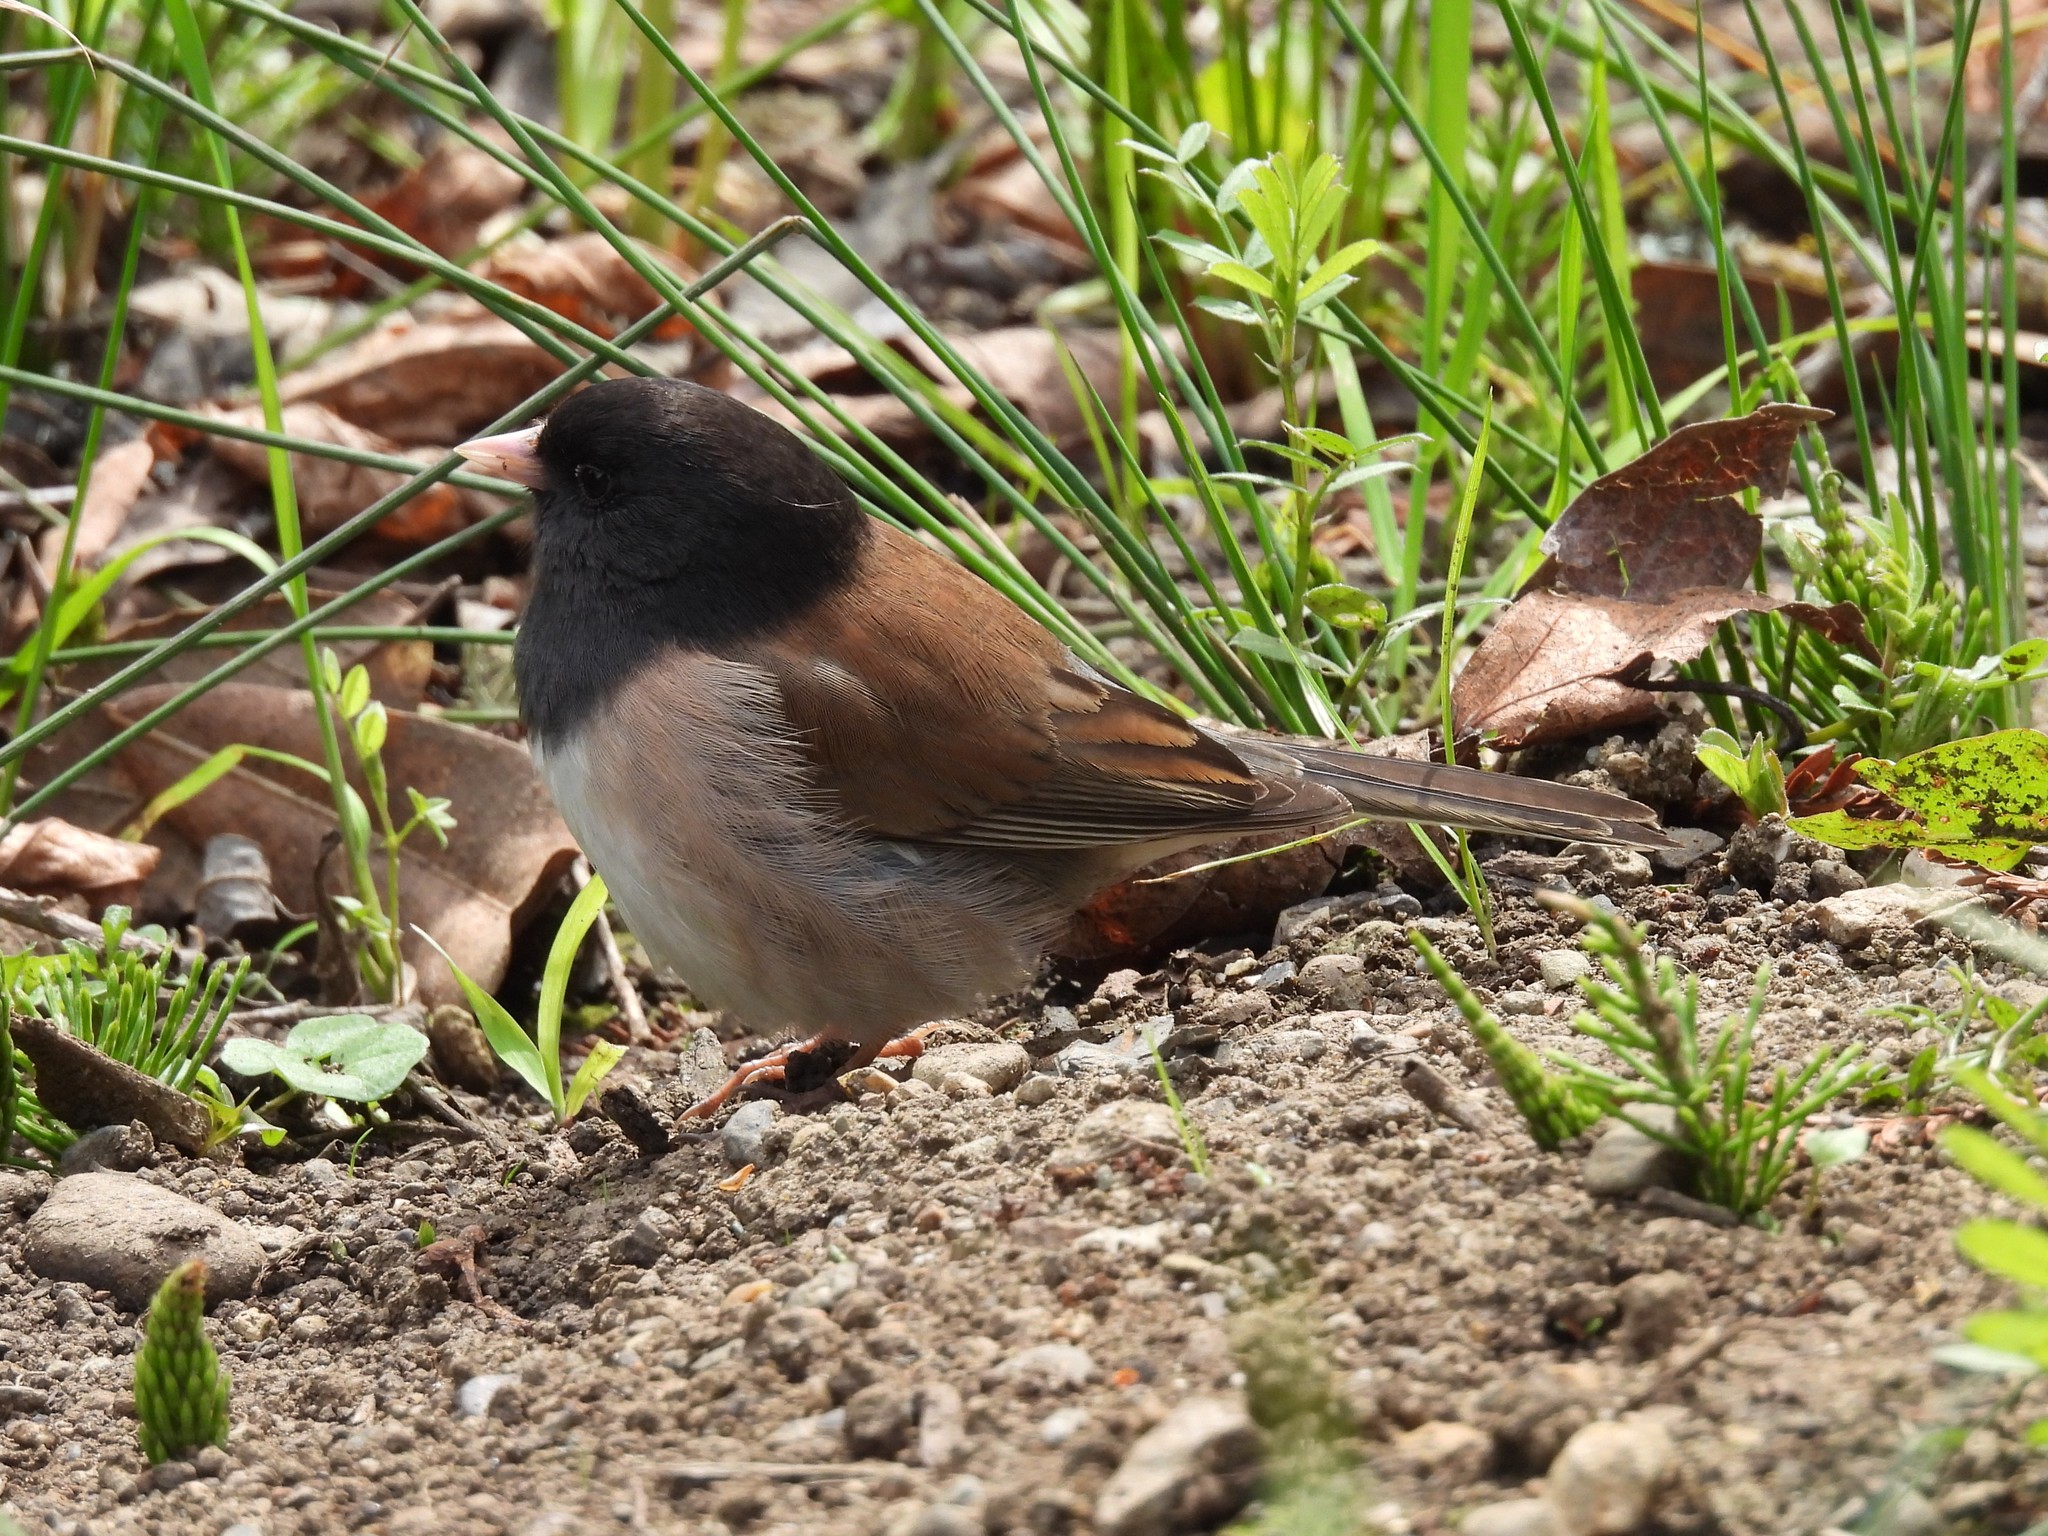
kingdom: Animalia
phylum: Chordata
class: Aves
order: Passeriformes
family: Passerellidae
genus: Junco
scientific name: Junco hyemalis
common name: Dark-eyed junco
